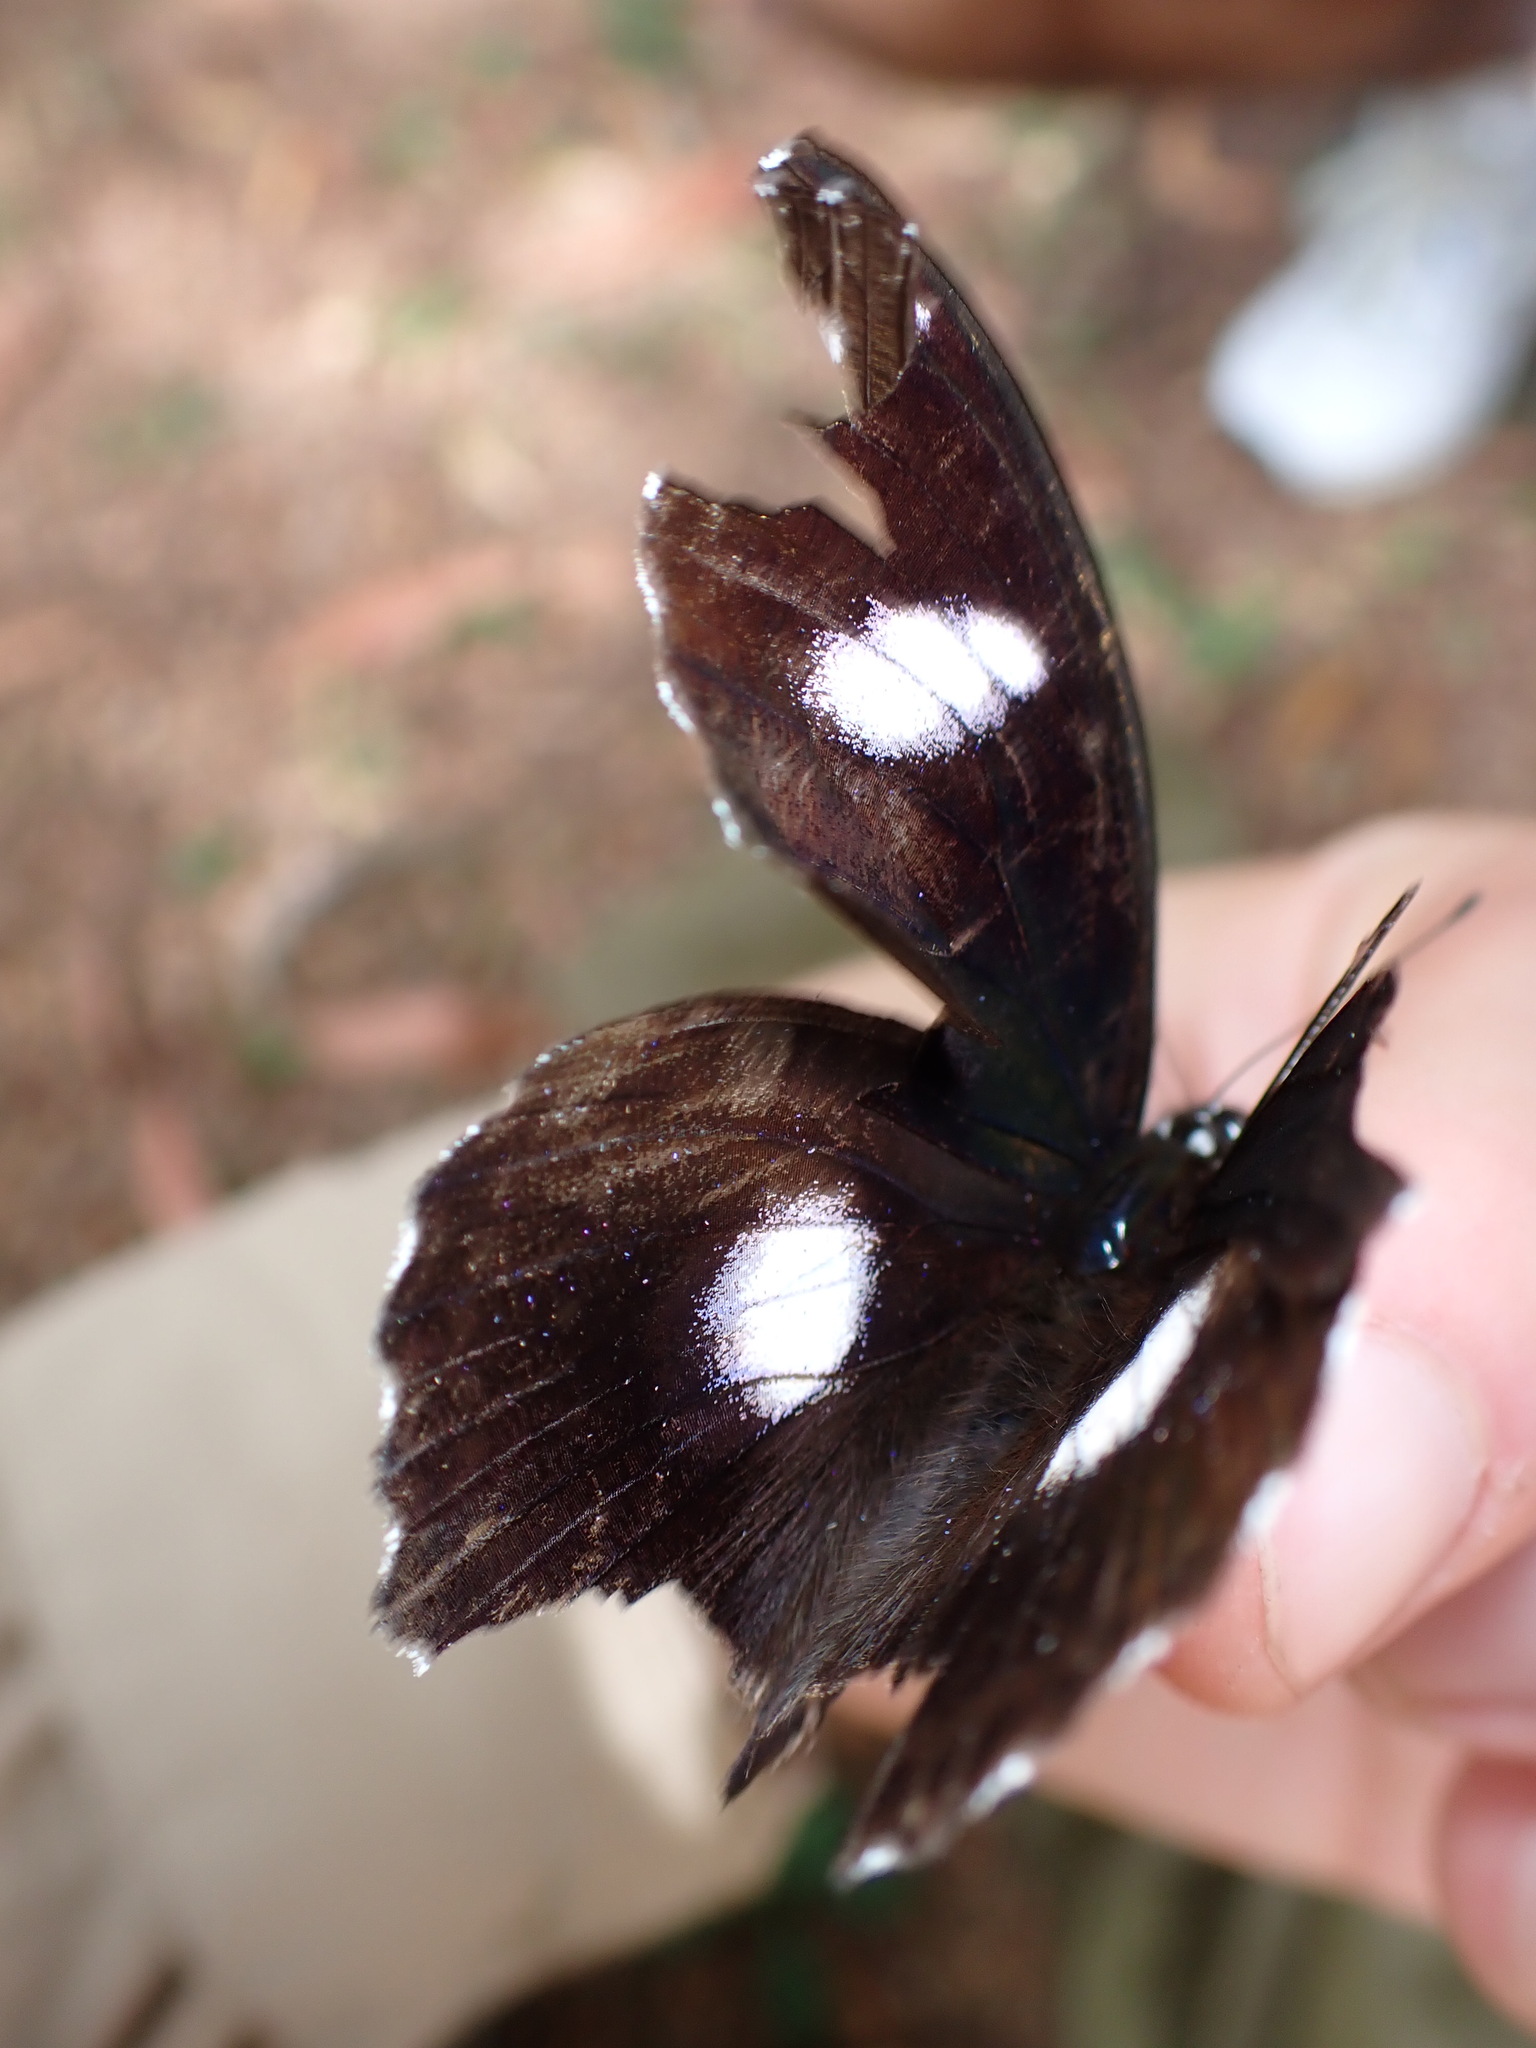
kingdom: Animalia
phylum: Arthropoda
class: Insecta
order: Lepidoptera
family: Nymphalidae
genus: Hypolimnas
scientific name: Hypolimnas bolina
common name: Great eggfly
